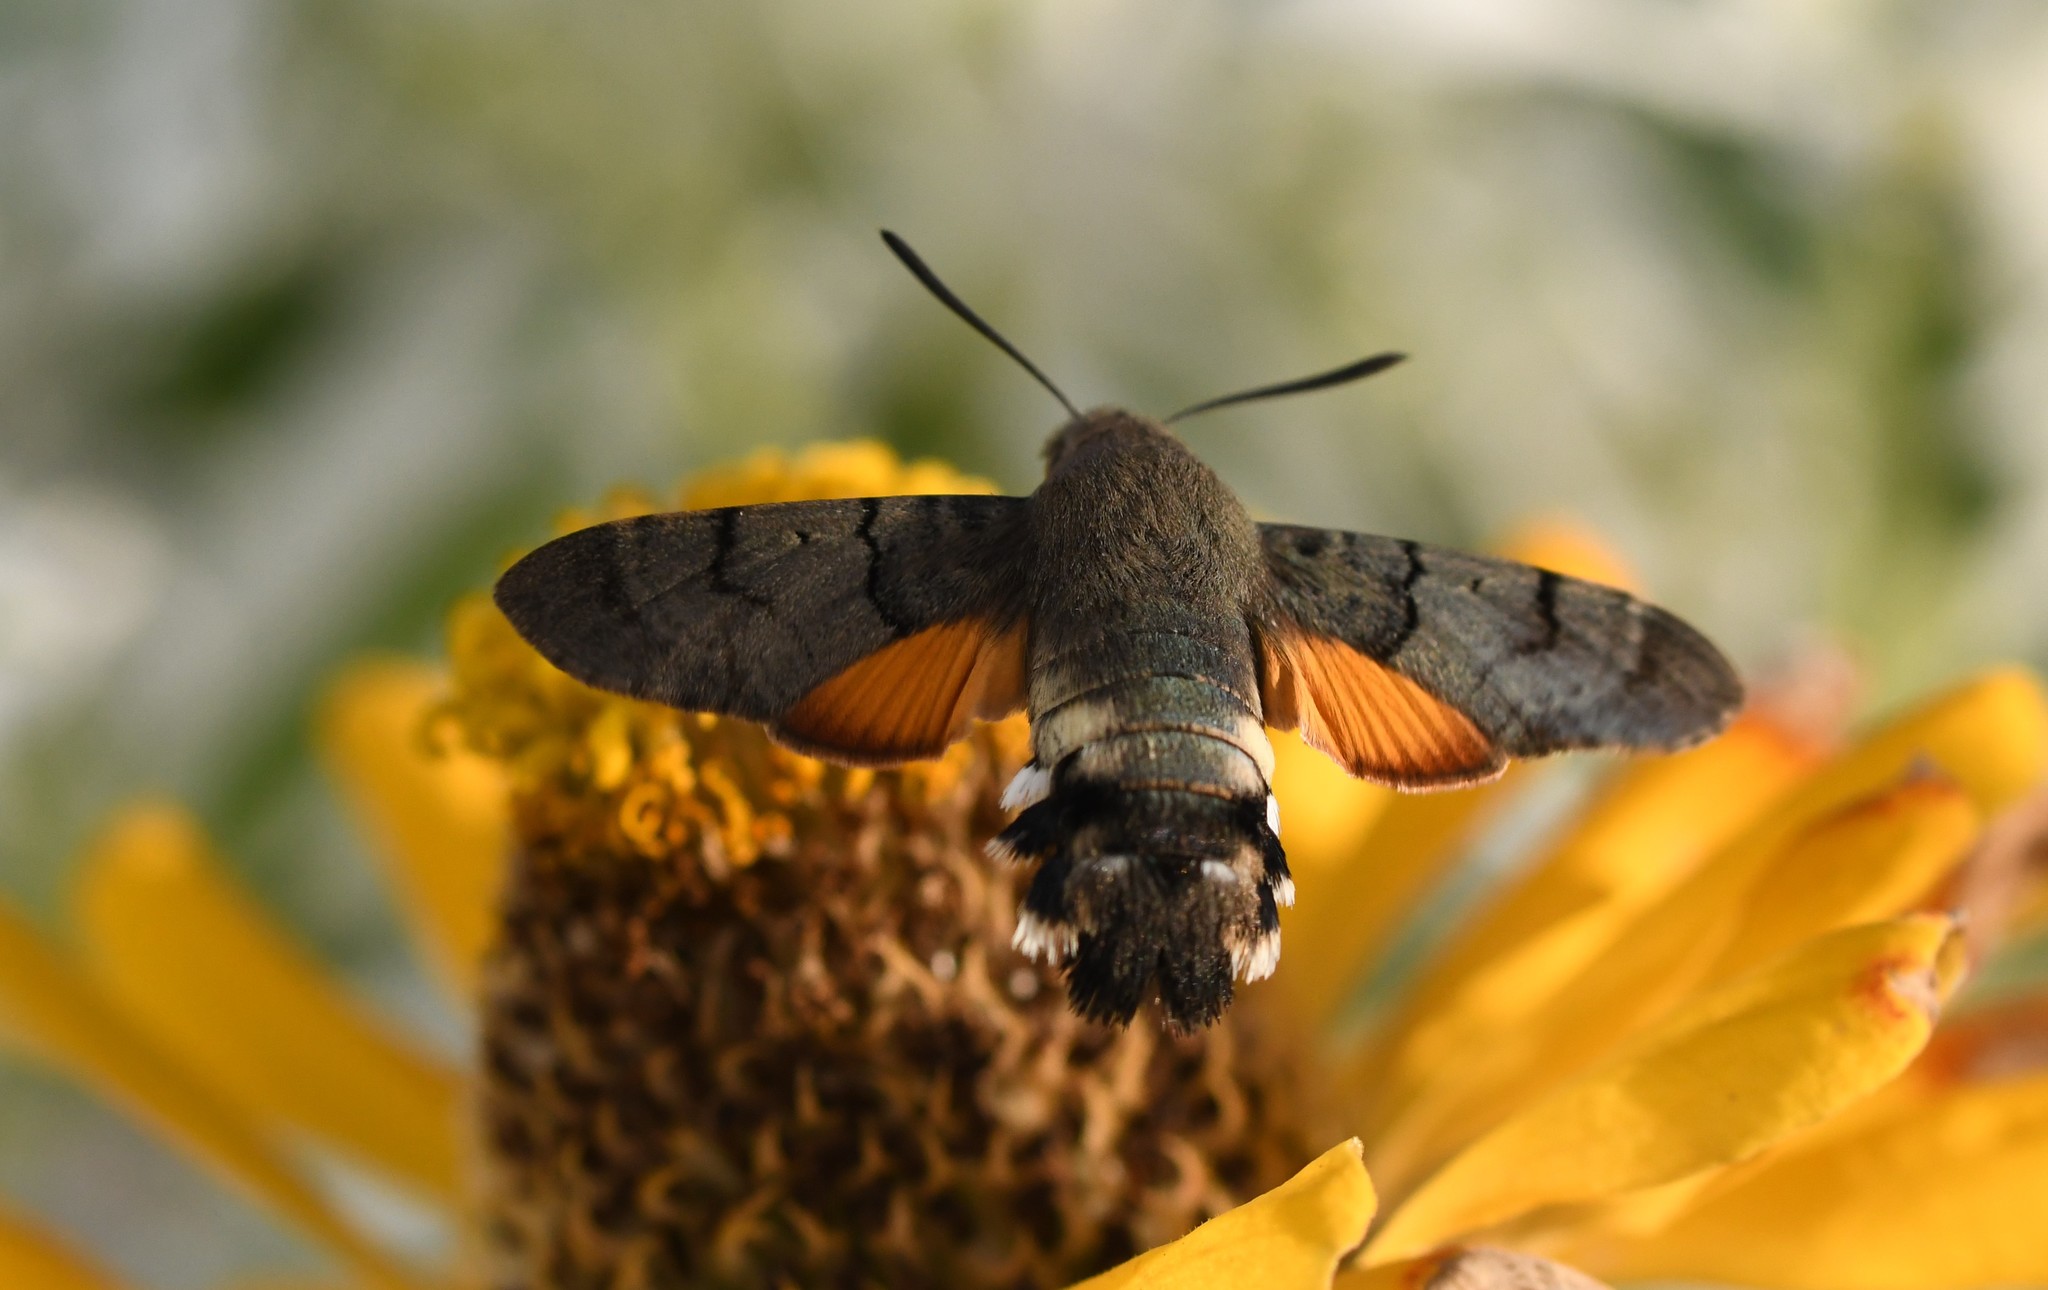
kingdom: Animalia
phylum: Arthropoda
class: Insecta
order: Lepidoptera
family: Sphingidae
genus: Macroglossum
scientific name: Macroglossum stellatarum
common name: Humming-bird hawk-moth
